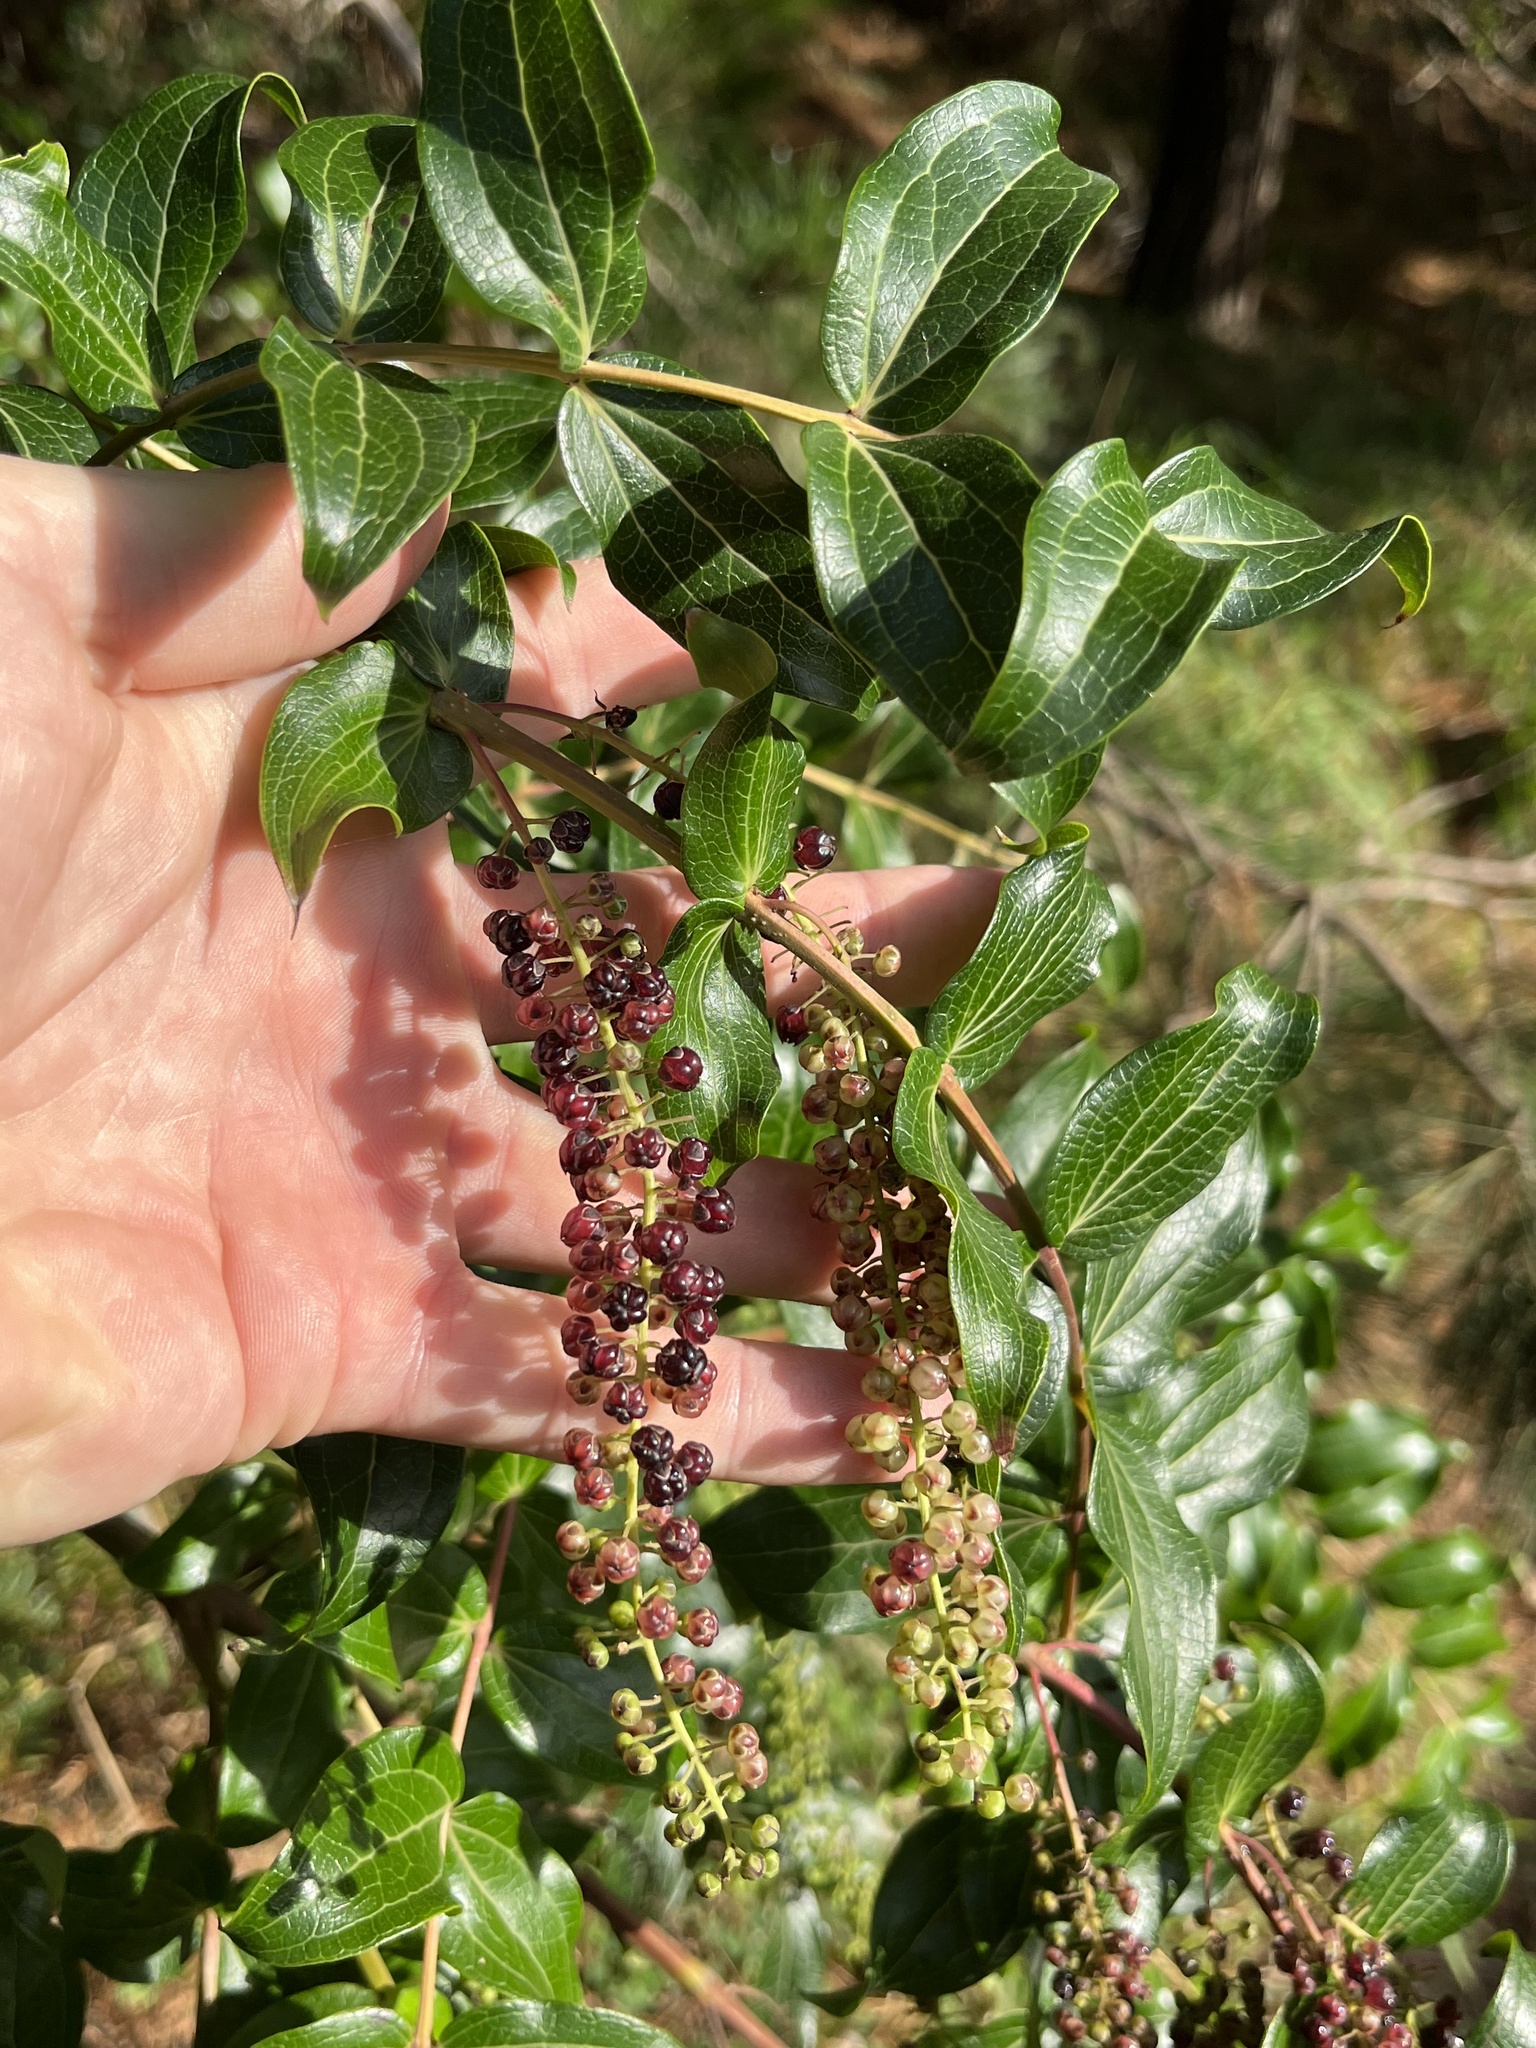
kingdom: Plantae
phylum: Tracheophyta
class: Magnoliopsida
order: Cucurbitales
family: Coriariaceae
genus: Coriaria
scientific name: Coriaria arborea
